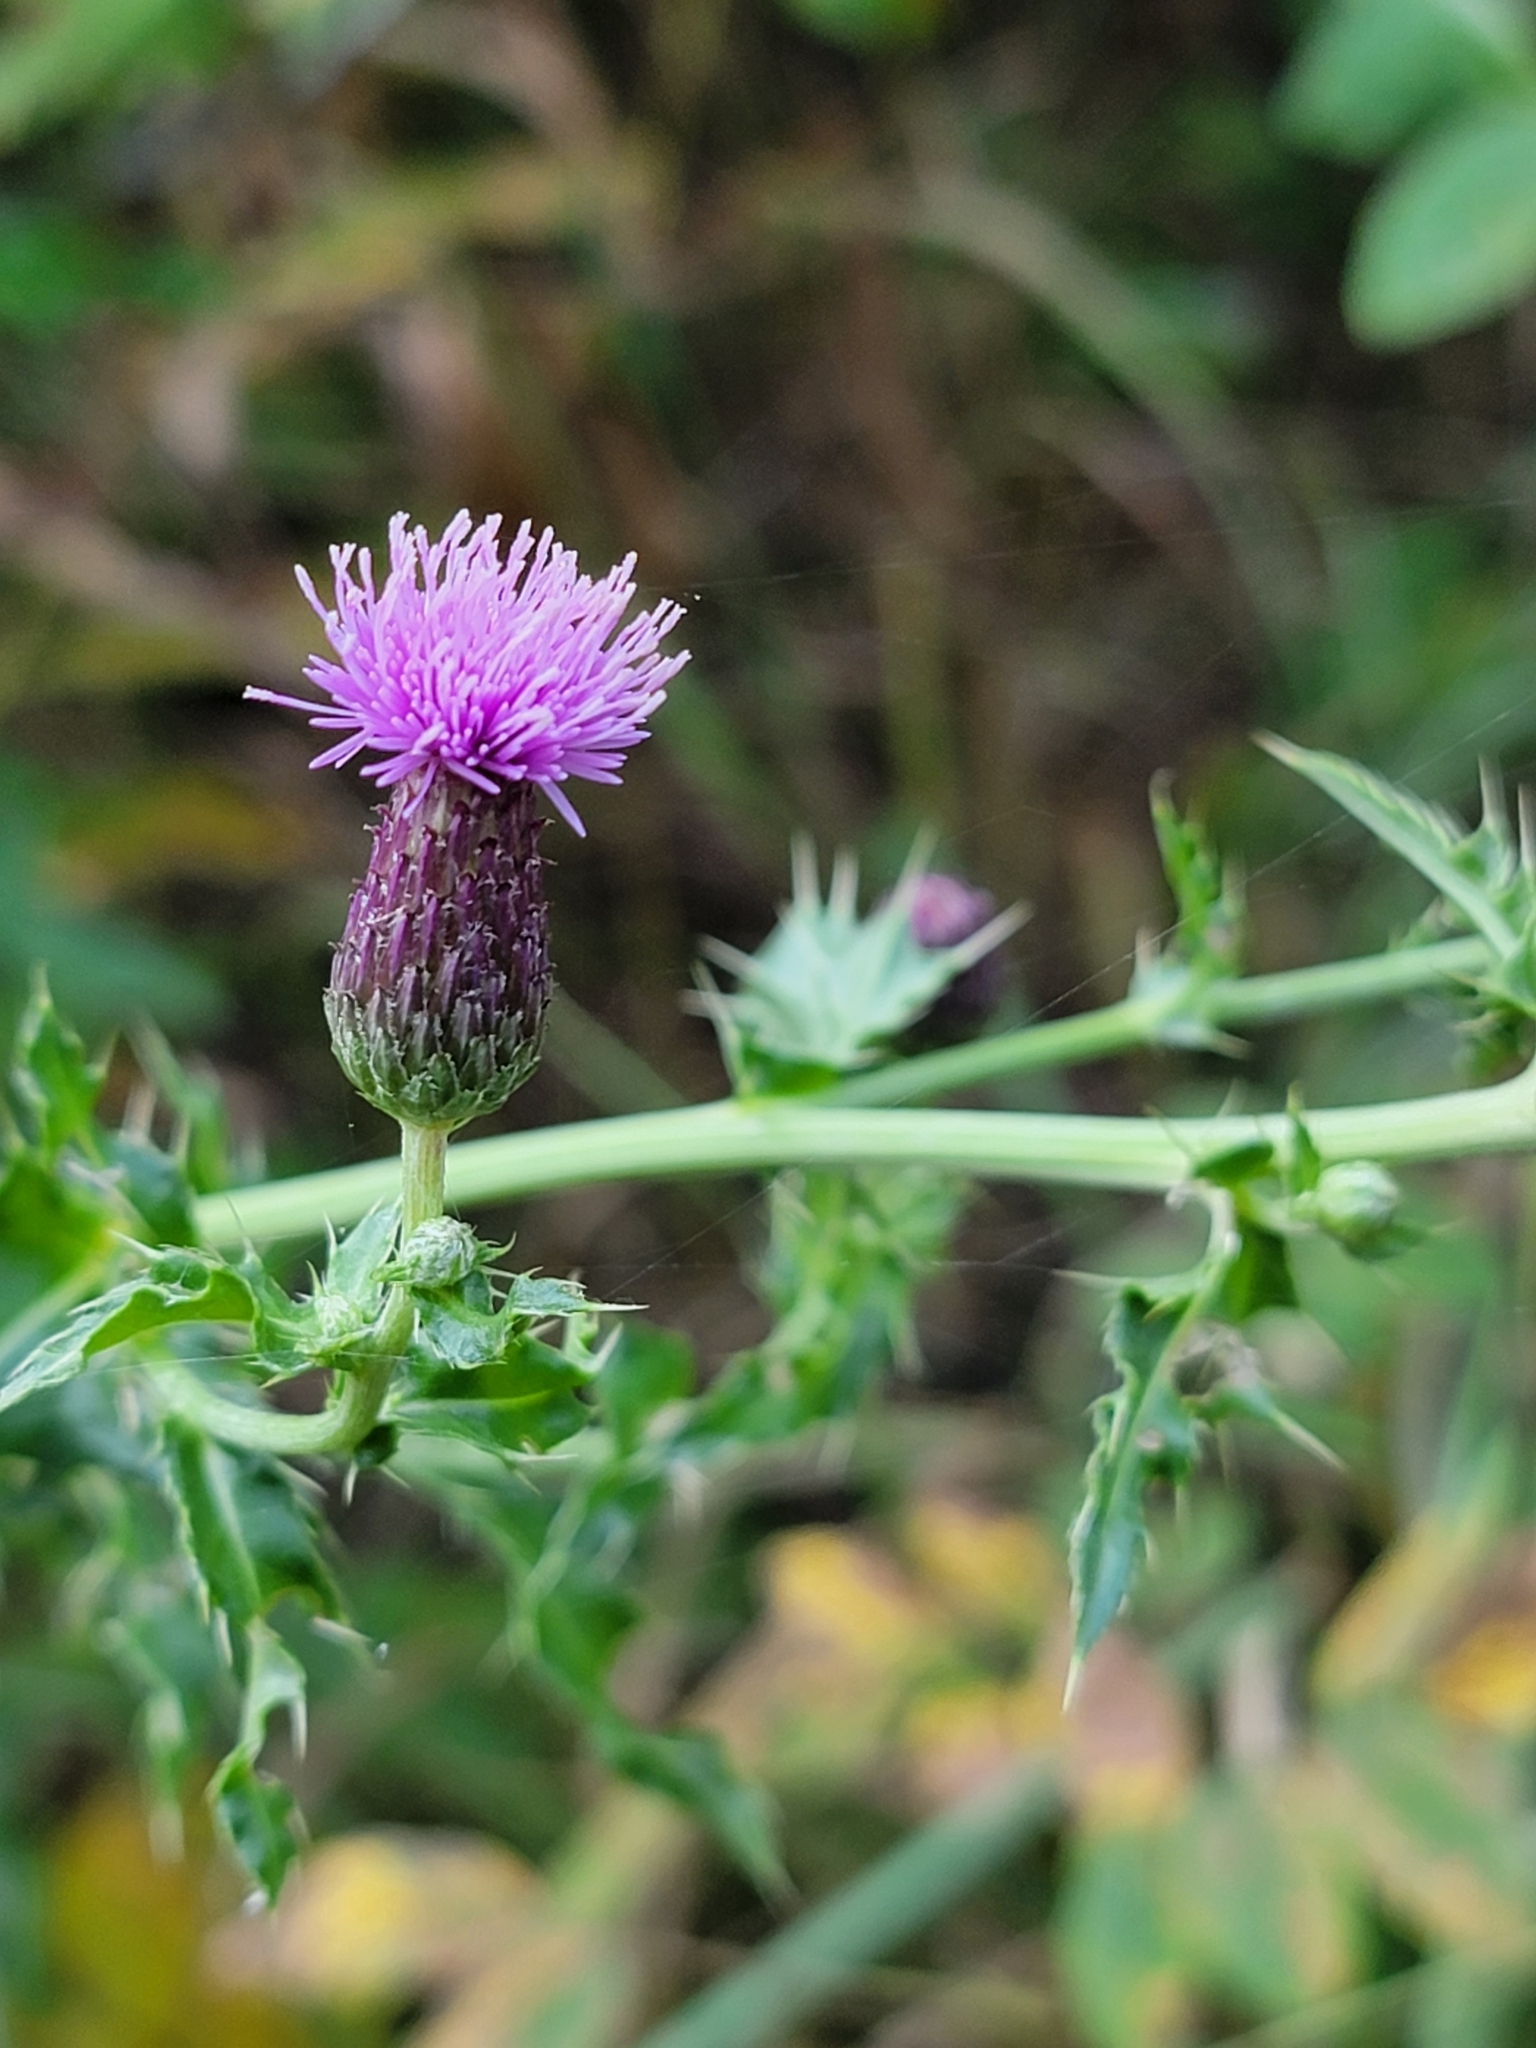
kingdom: Plantae
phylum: Tracheophyta
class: Magnoliopsida
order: Asterales
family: Asteraceae
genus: Cirsium
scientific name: Cirsium arvense
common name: Creeping thistle
